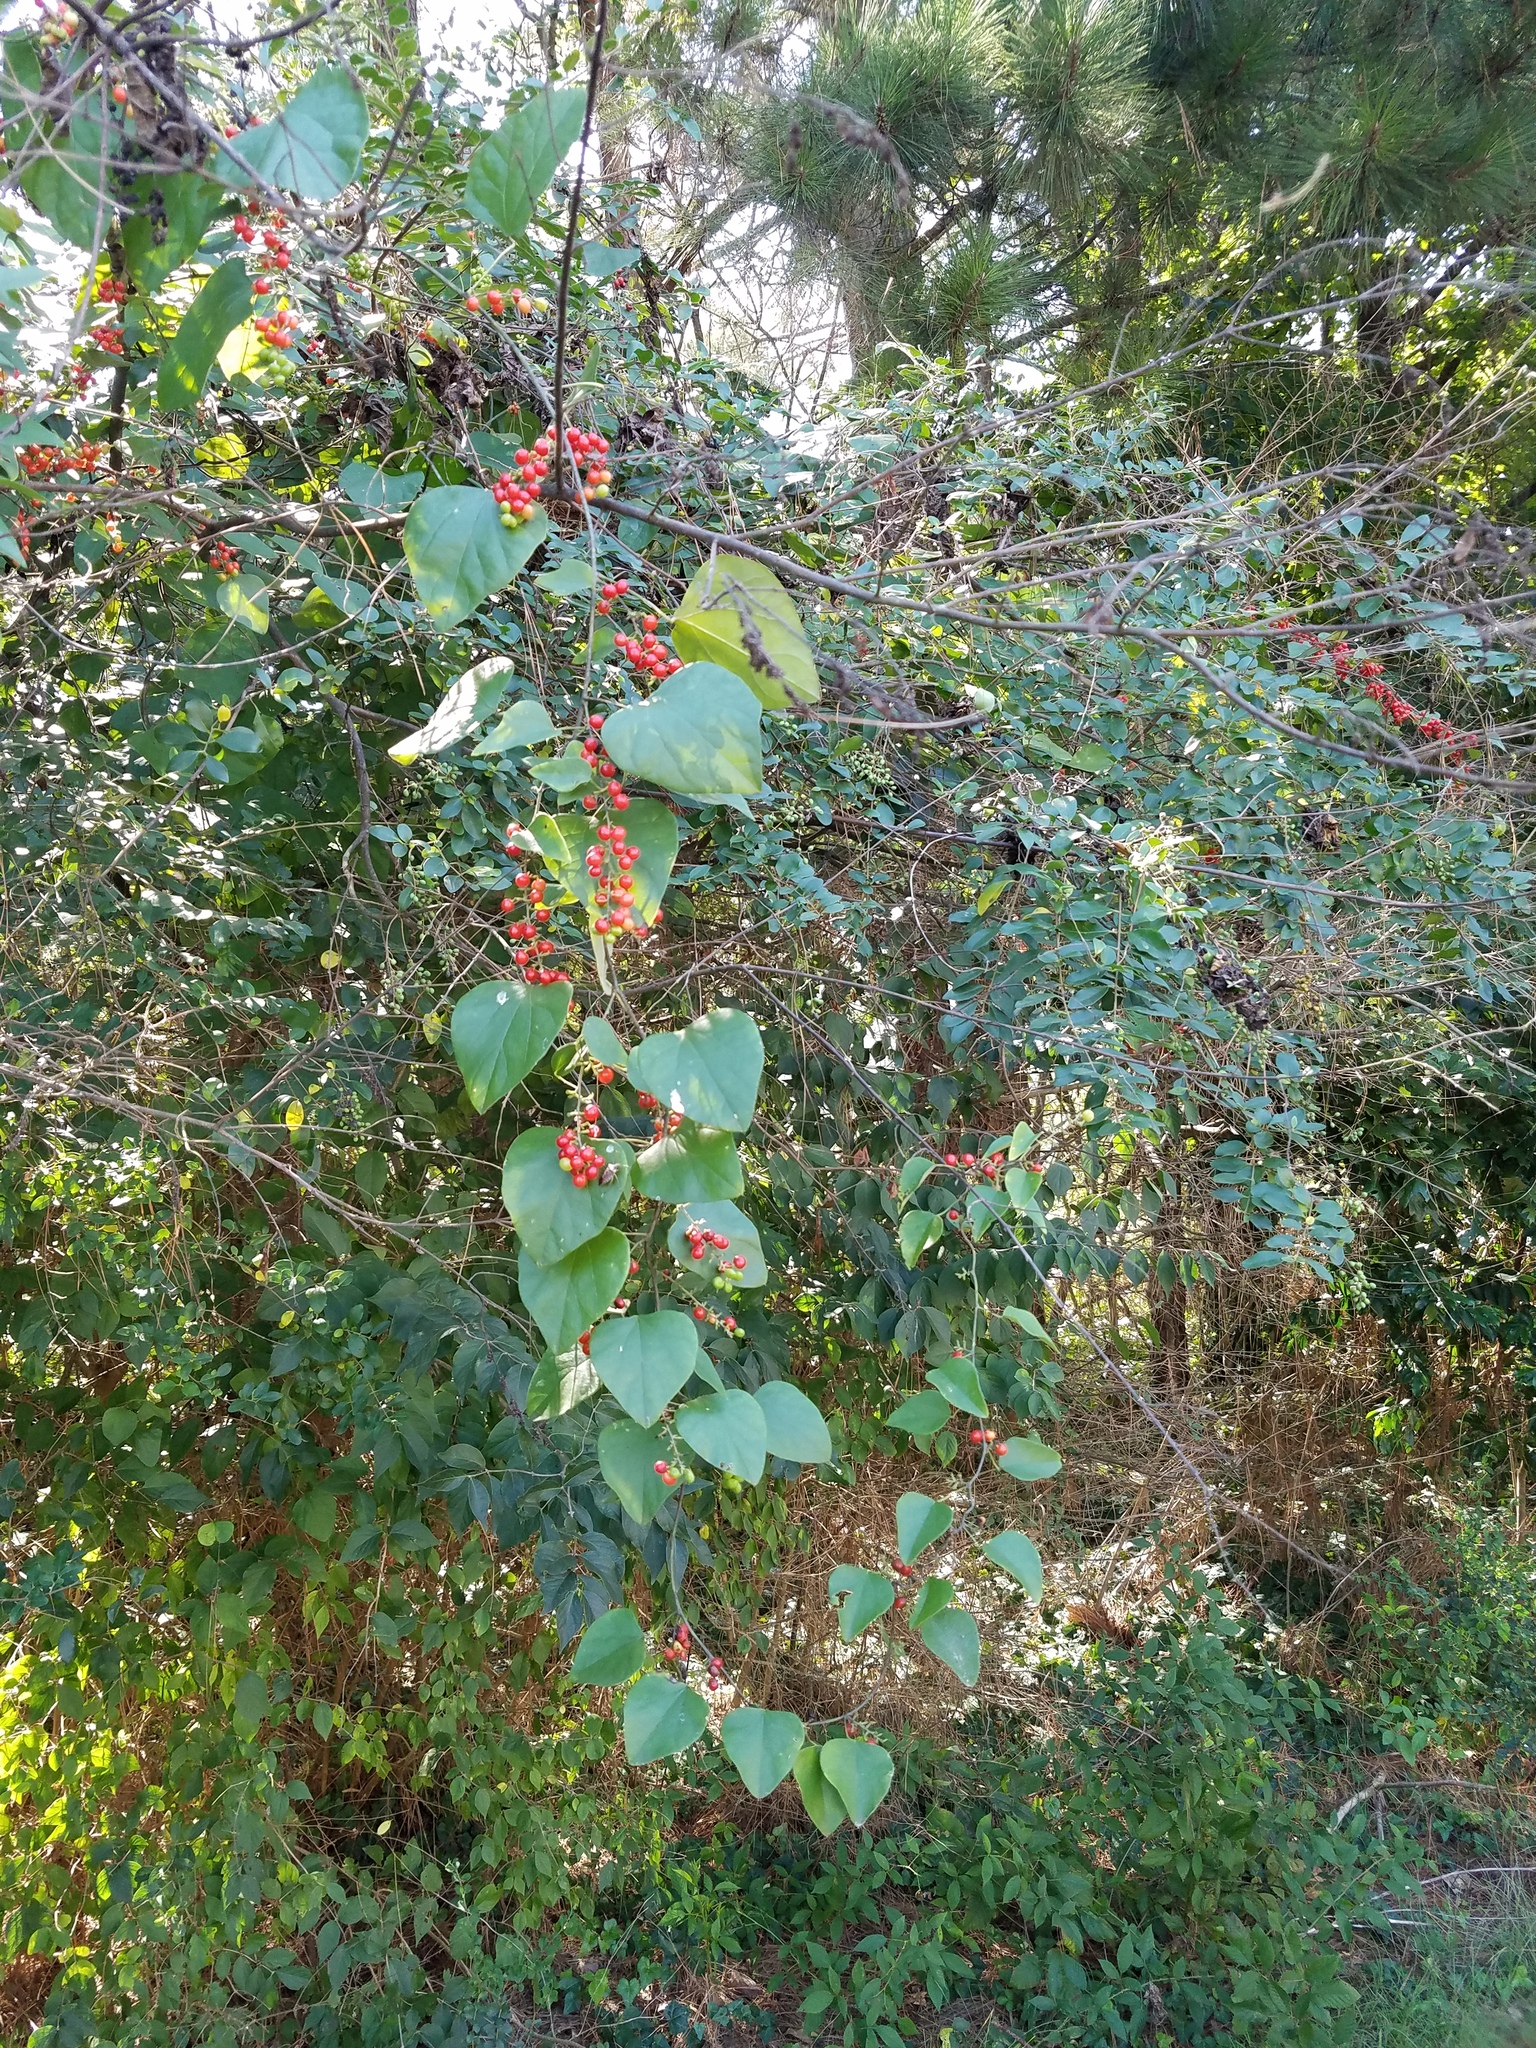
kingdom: Plantae
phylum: Tracheophyta
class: Magnoliopsida
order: Ranunculales
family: Menispermaceae
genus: Cocculus
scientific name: Cocculus carolinus
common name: Carolina moonseed
